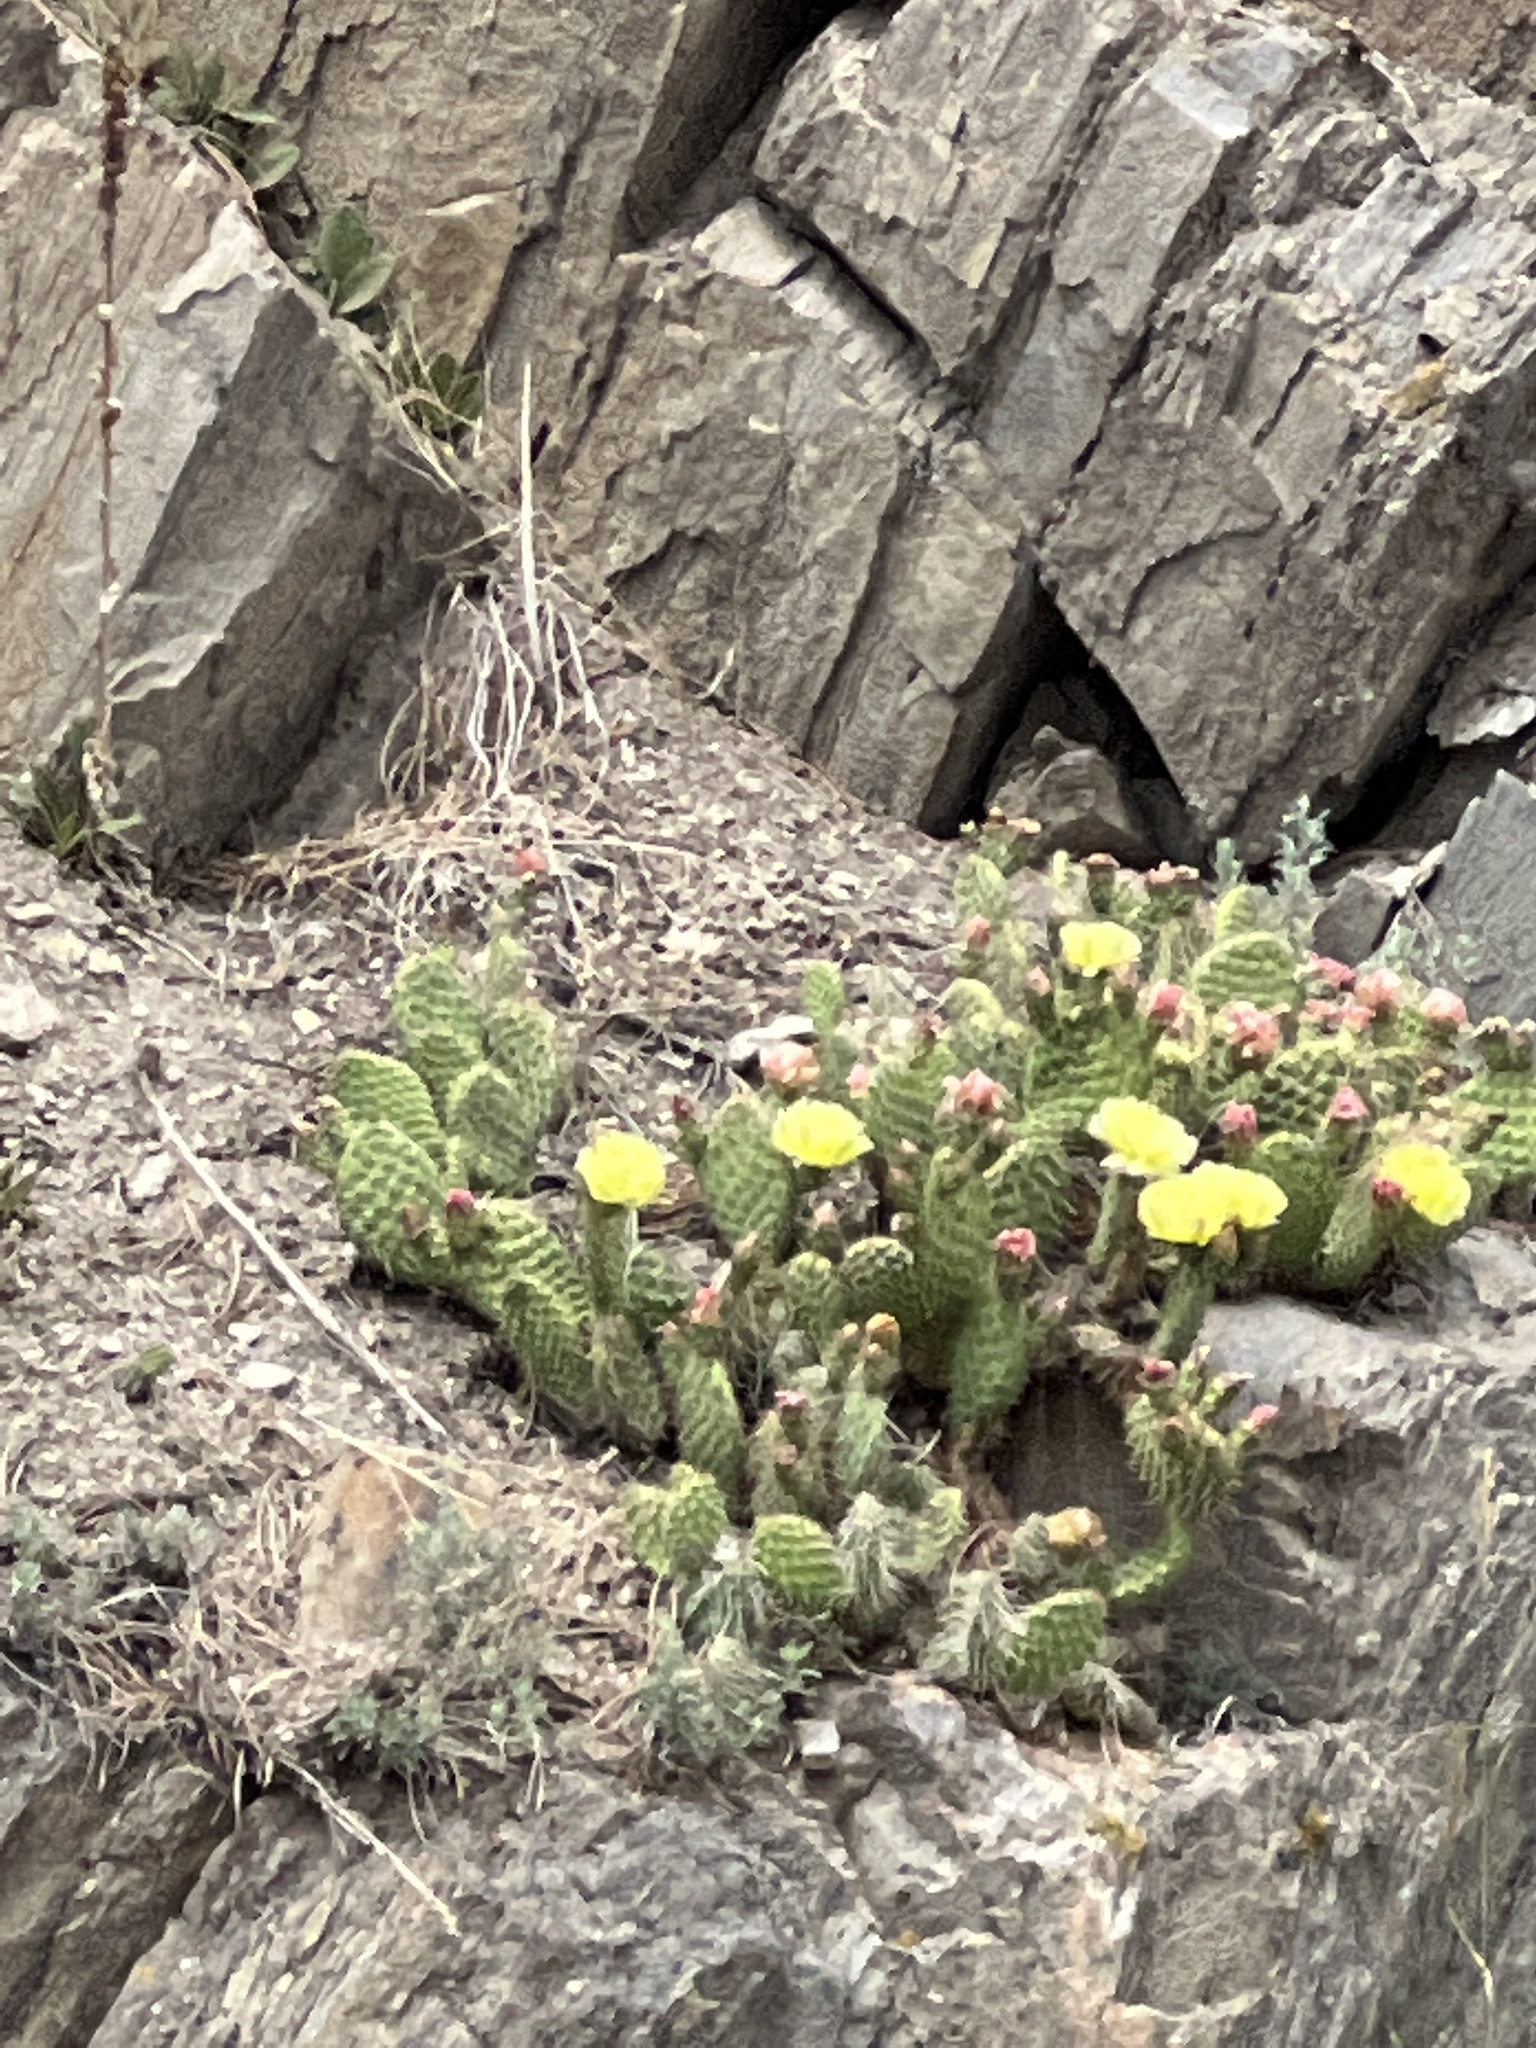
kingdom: Plantae
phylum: Tracheophyta
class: Magnoliopsida
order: Caryophyllales
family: Cactaceae
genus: Opuntia
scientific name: Opuntia polyacantha
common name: Plains prickly-pear
